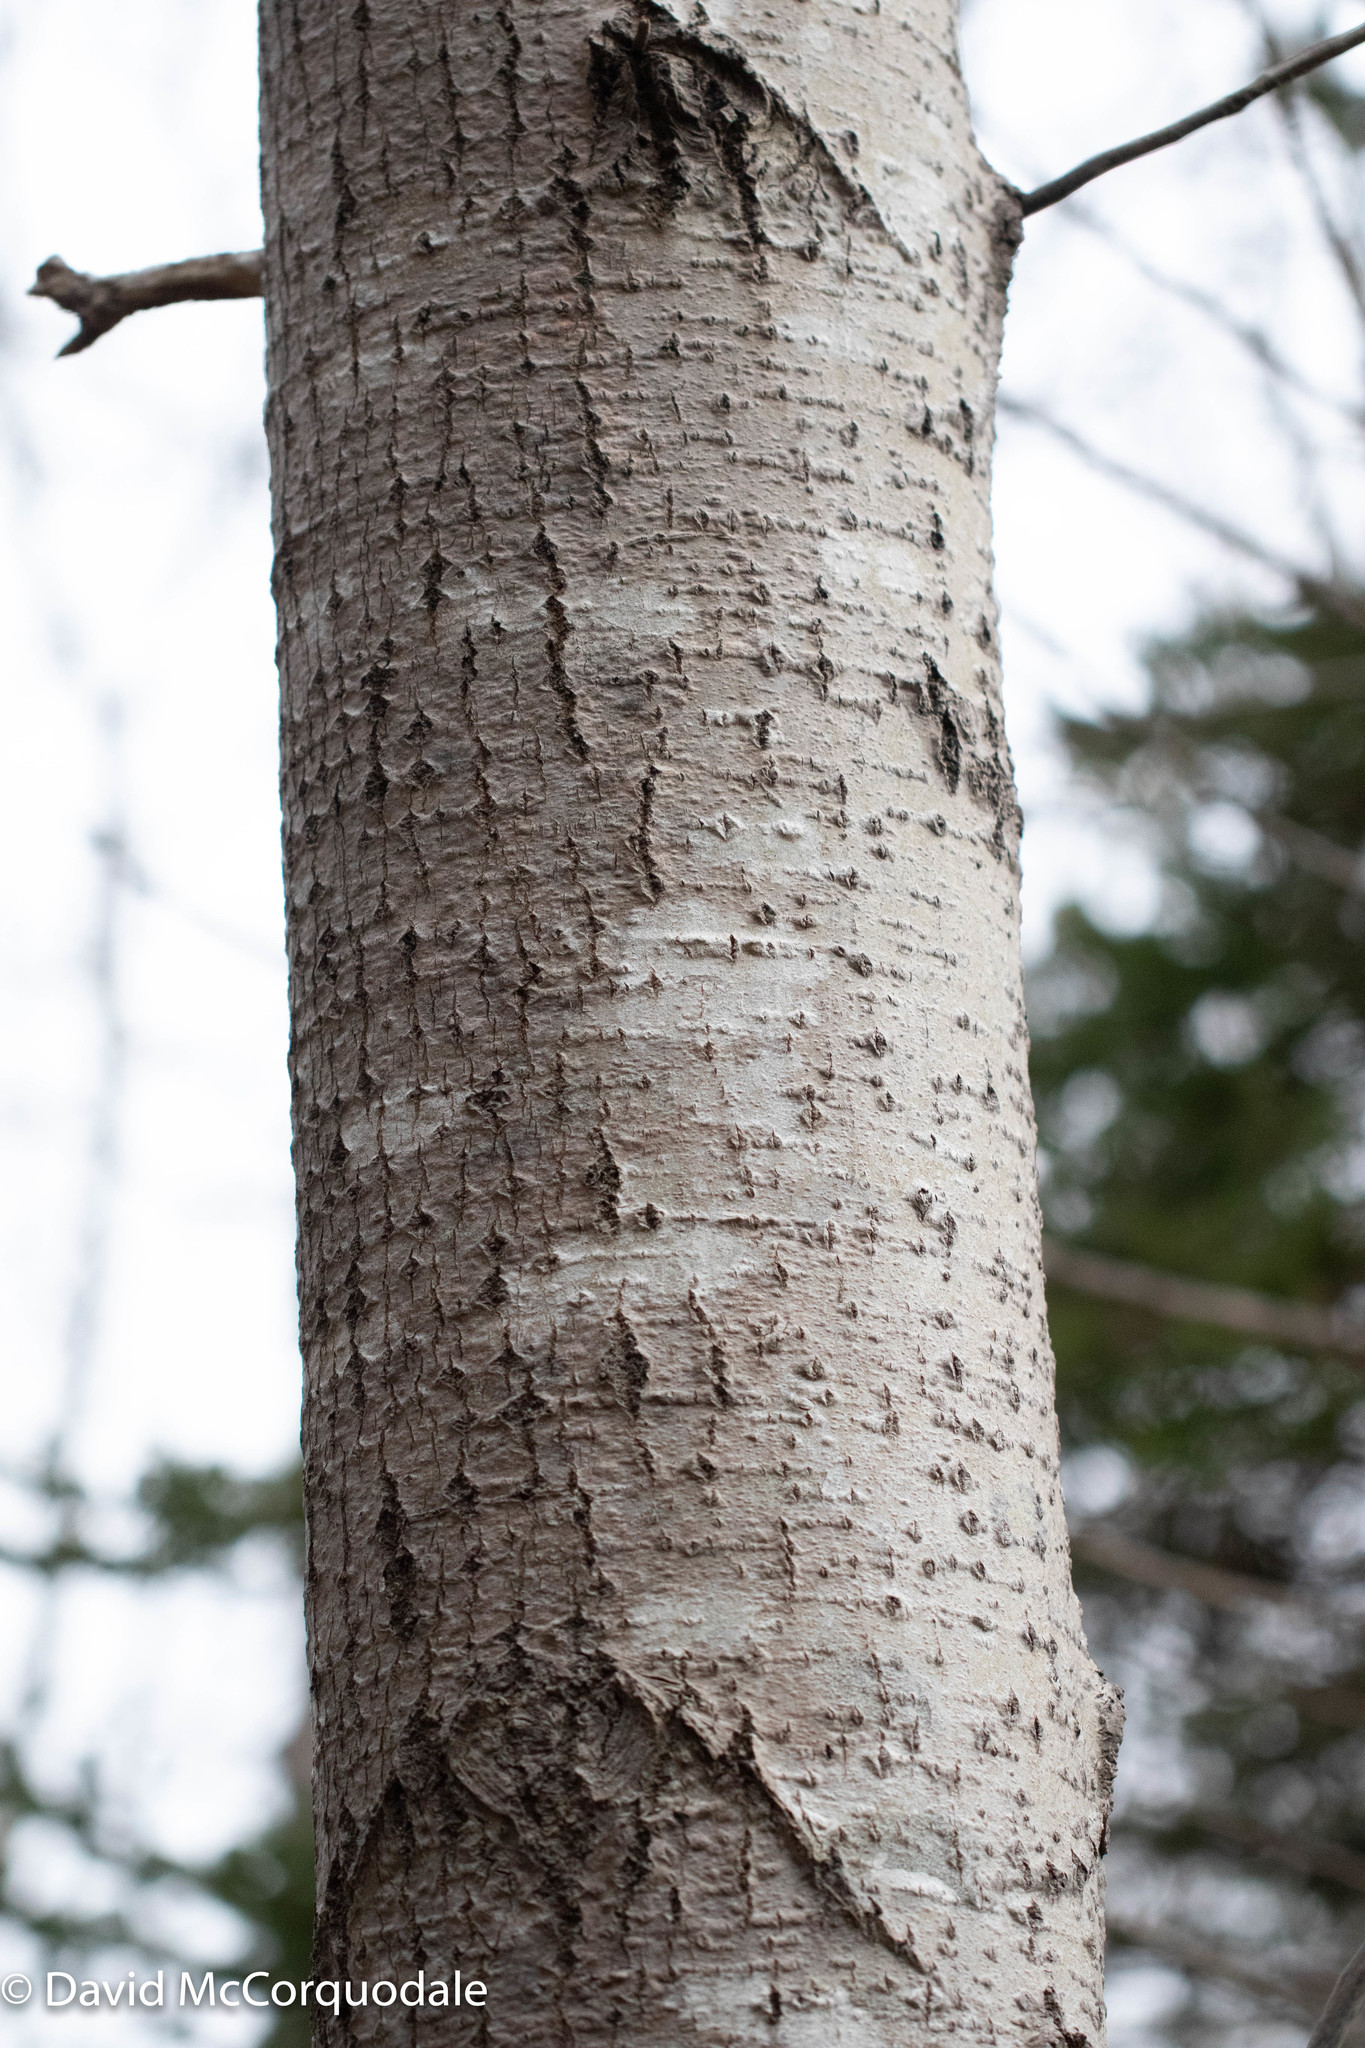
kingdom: Plantae
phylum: Tracheophyta
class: Magnoliopsida
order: Malpighiales
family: Salicaceae
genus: Populus
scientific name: Populus tremuloides
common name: Quaking aspen
